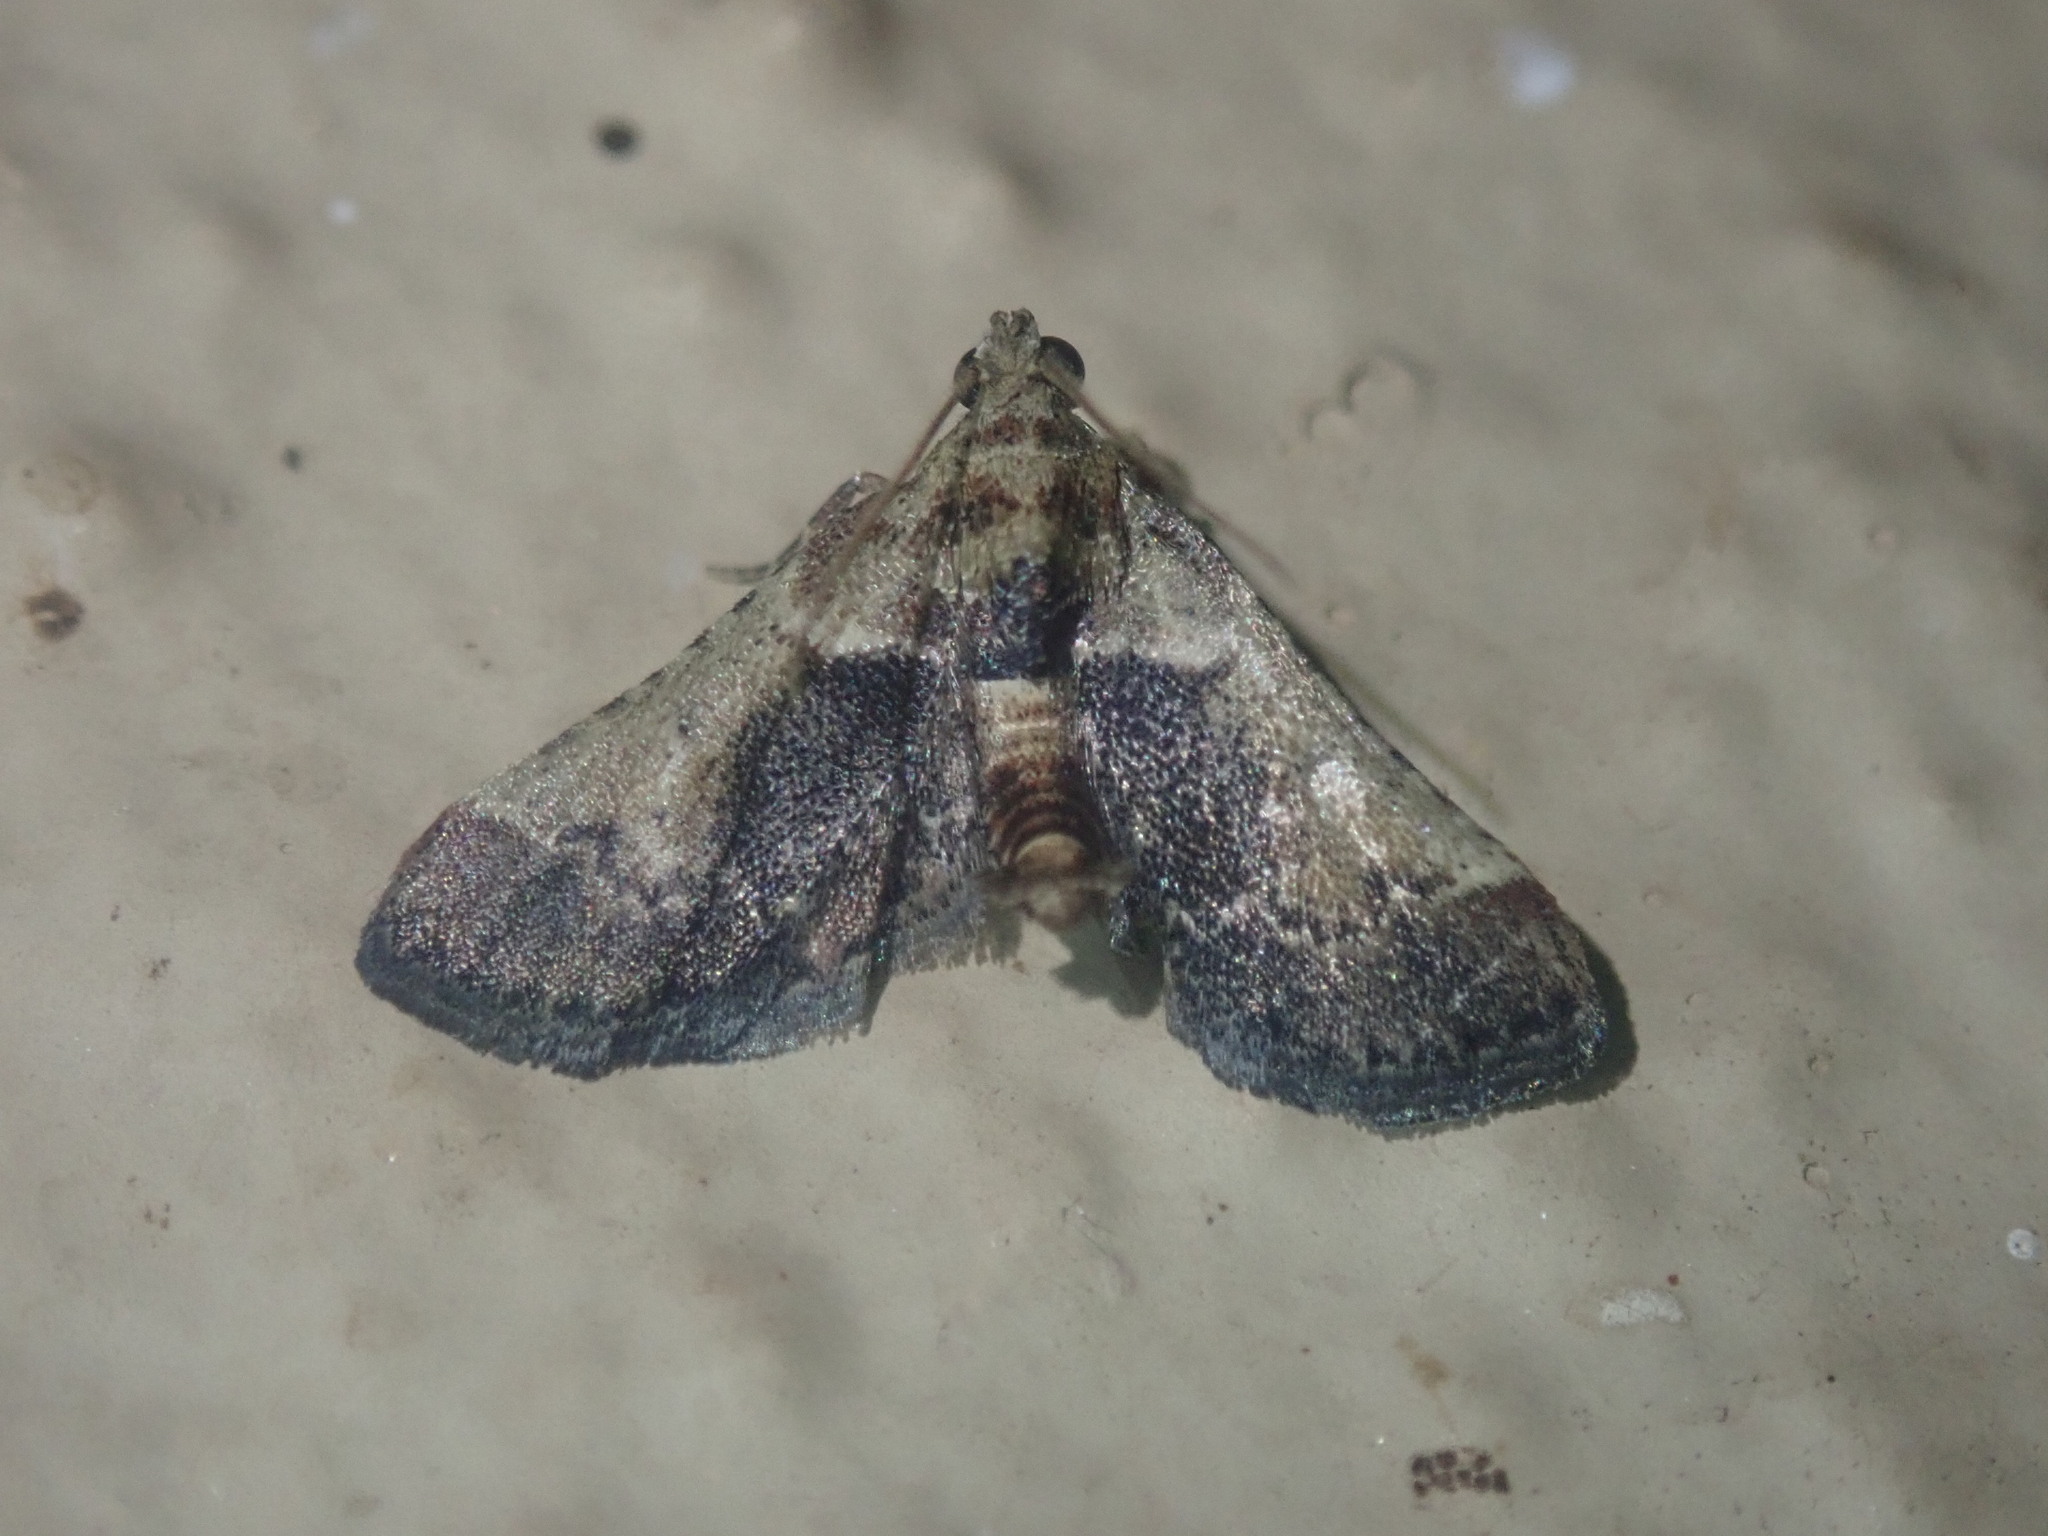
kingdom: Animalia
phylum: Arthropoda
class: Insecta
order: Lepidoptera
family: Pyralidae
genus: Tegulifera
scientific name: Tegulifera tristiculalis
